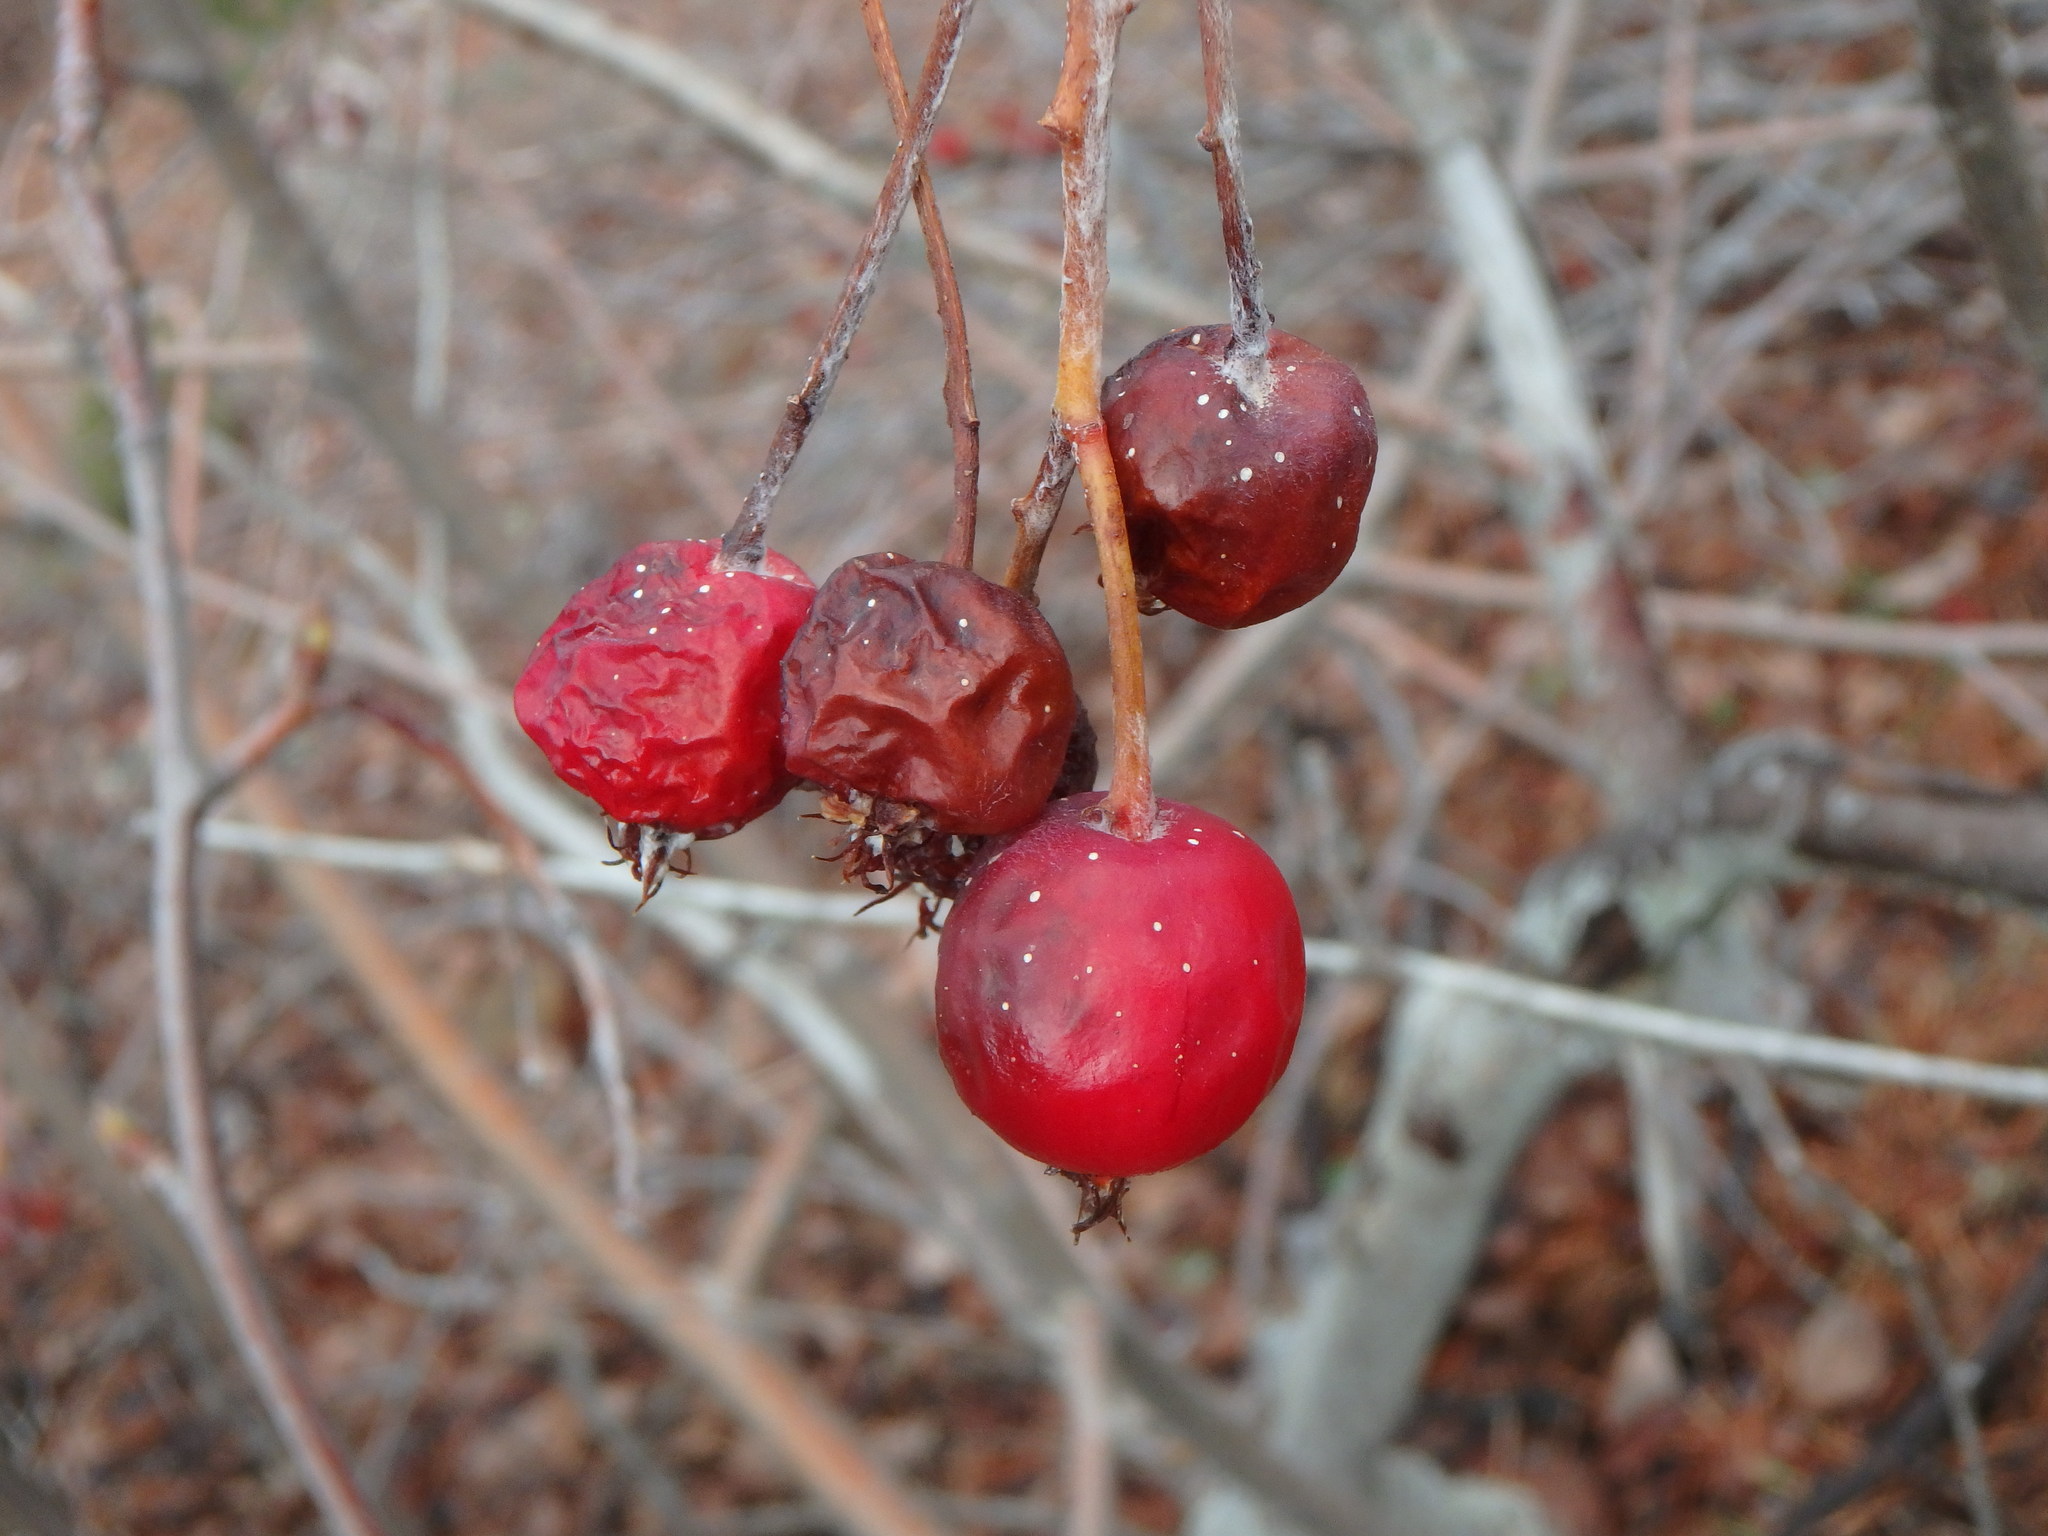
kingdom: Plantae
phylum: Tracheophyta
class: Magnoliopsida
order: Rosales
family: Rosaceae
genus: Aria
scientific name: Aria graeca
